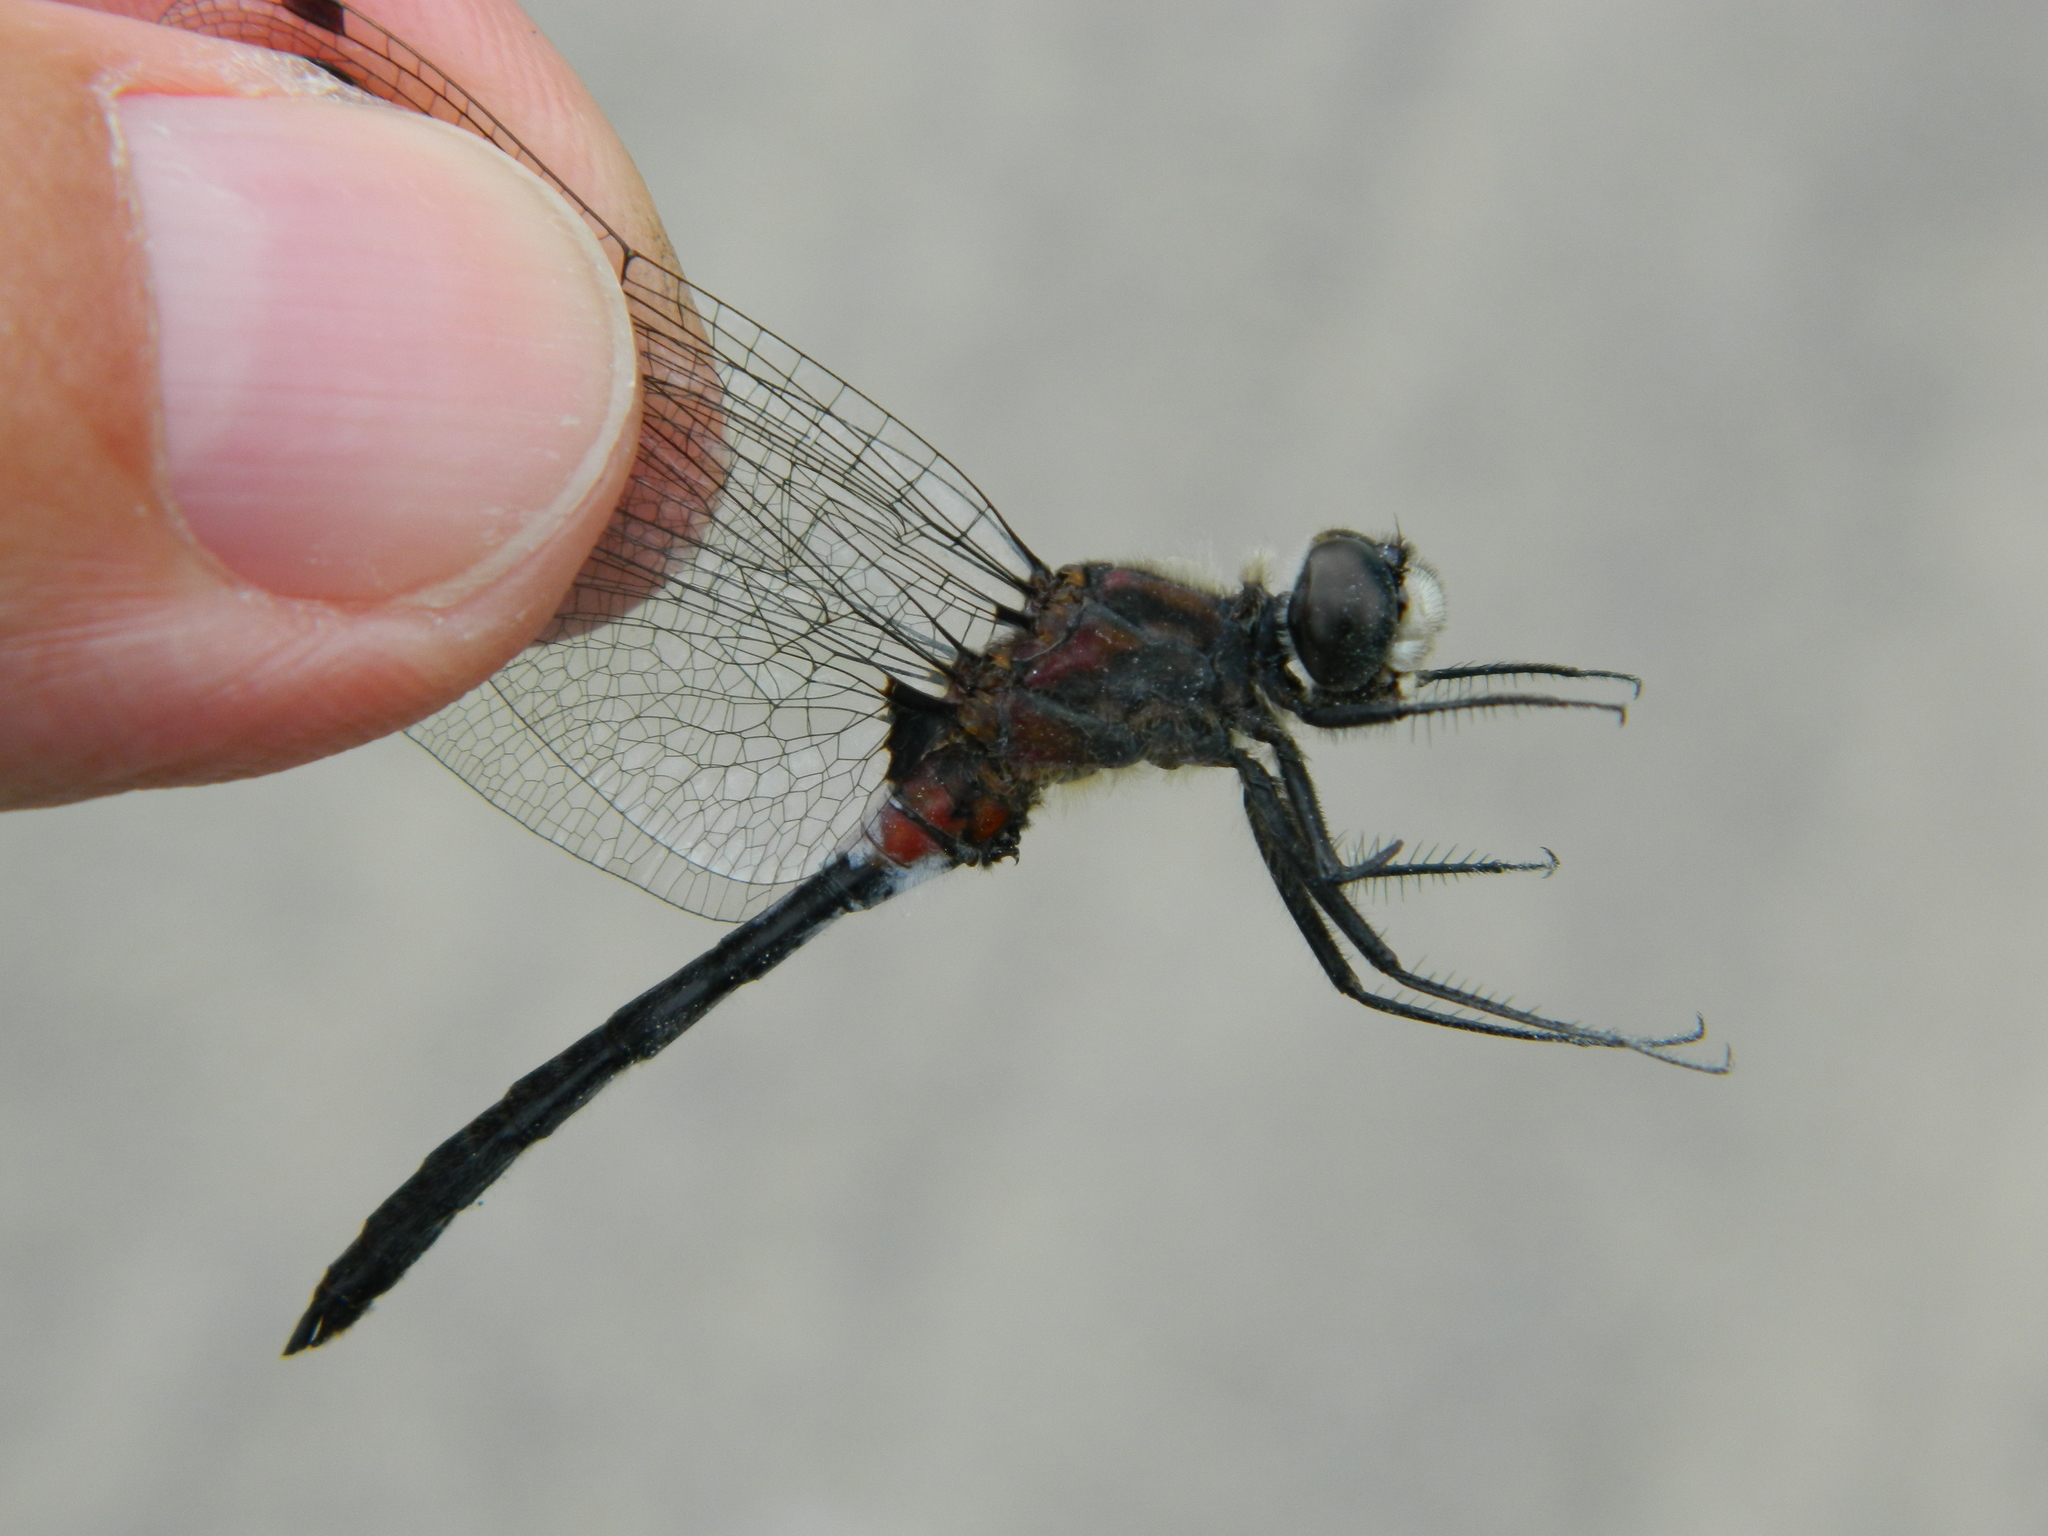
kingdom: Animalia
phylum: Arthropoda
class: Insecta
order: Odonata
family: Libellulidae
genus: Leucorrhinia
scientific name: Leucorrhinia proxima
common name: Belted whiteface
